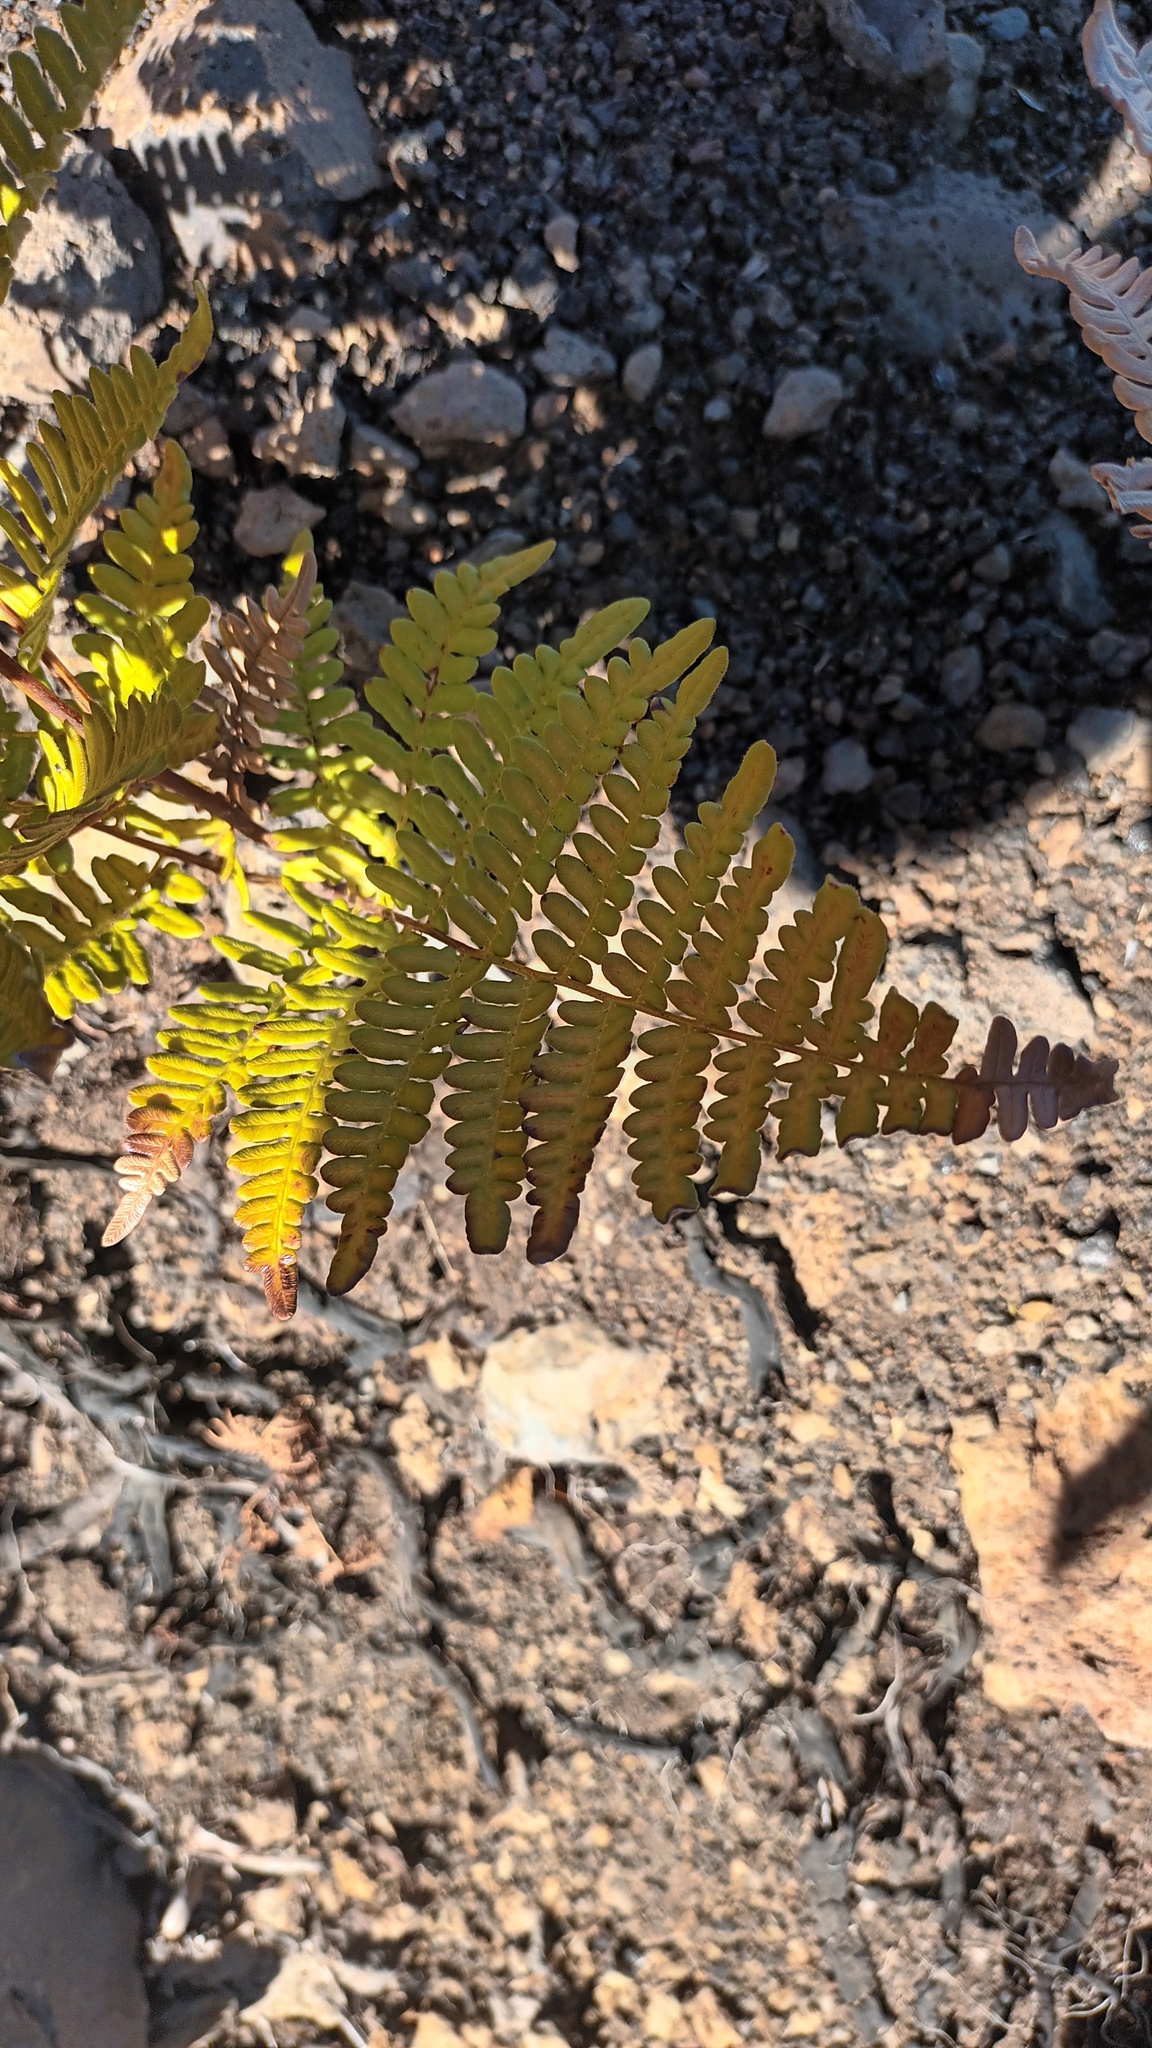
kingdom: Plantae
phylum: Tracheophyta
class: Polypodiopsida
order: Polypodiales
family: Dennstaedtiaceae
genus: Pteridium
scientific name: Pteridium aquilinum
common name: Bracken
